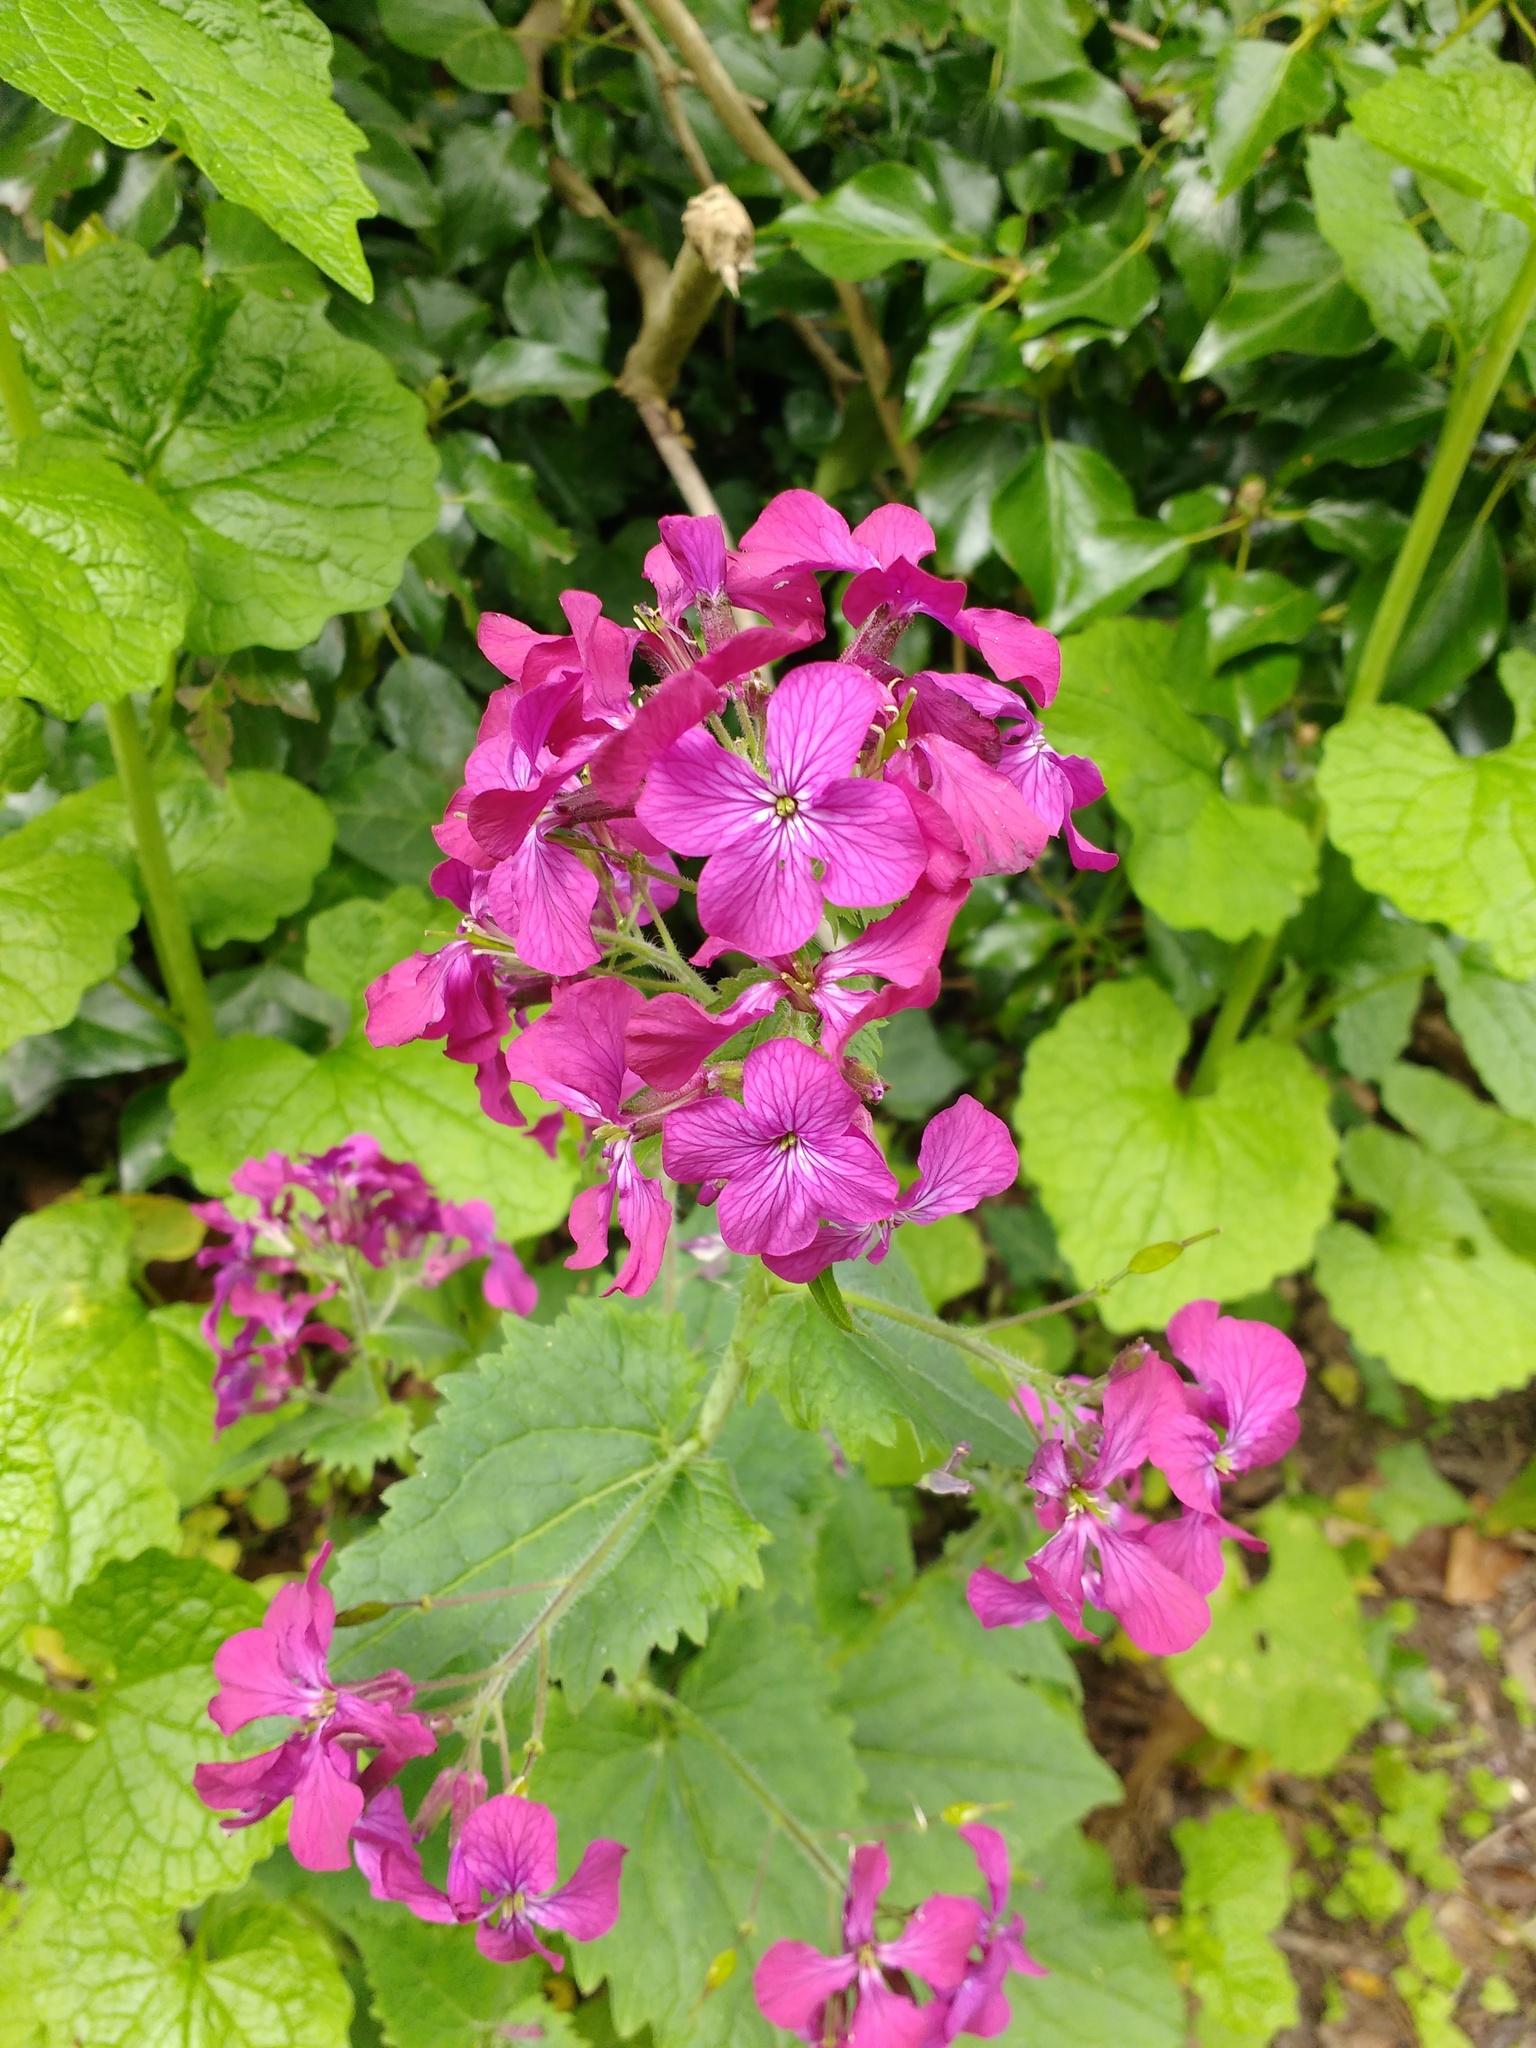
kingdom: Plantae
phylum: Tracheophyta
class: Magnoliopsida
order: Brassicales
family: Brassicaceae
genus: Lunaria
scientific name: Lunaria annua
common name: Honesty
